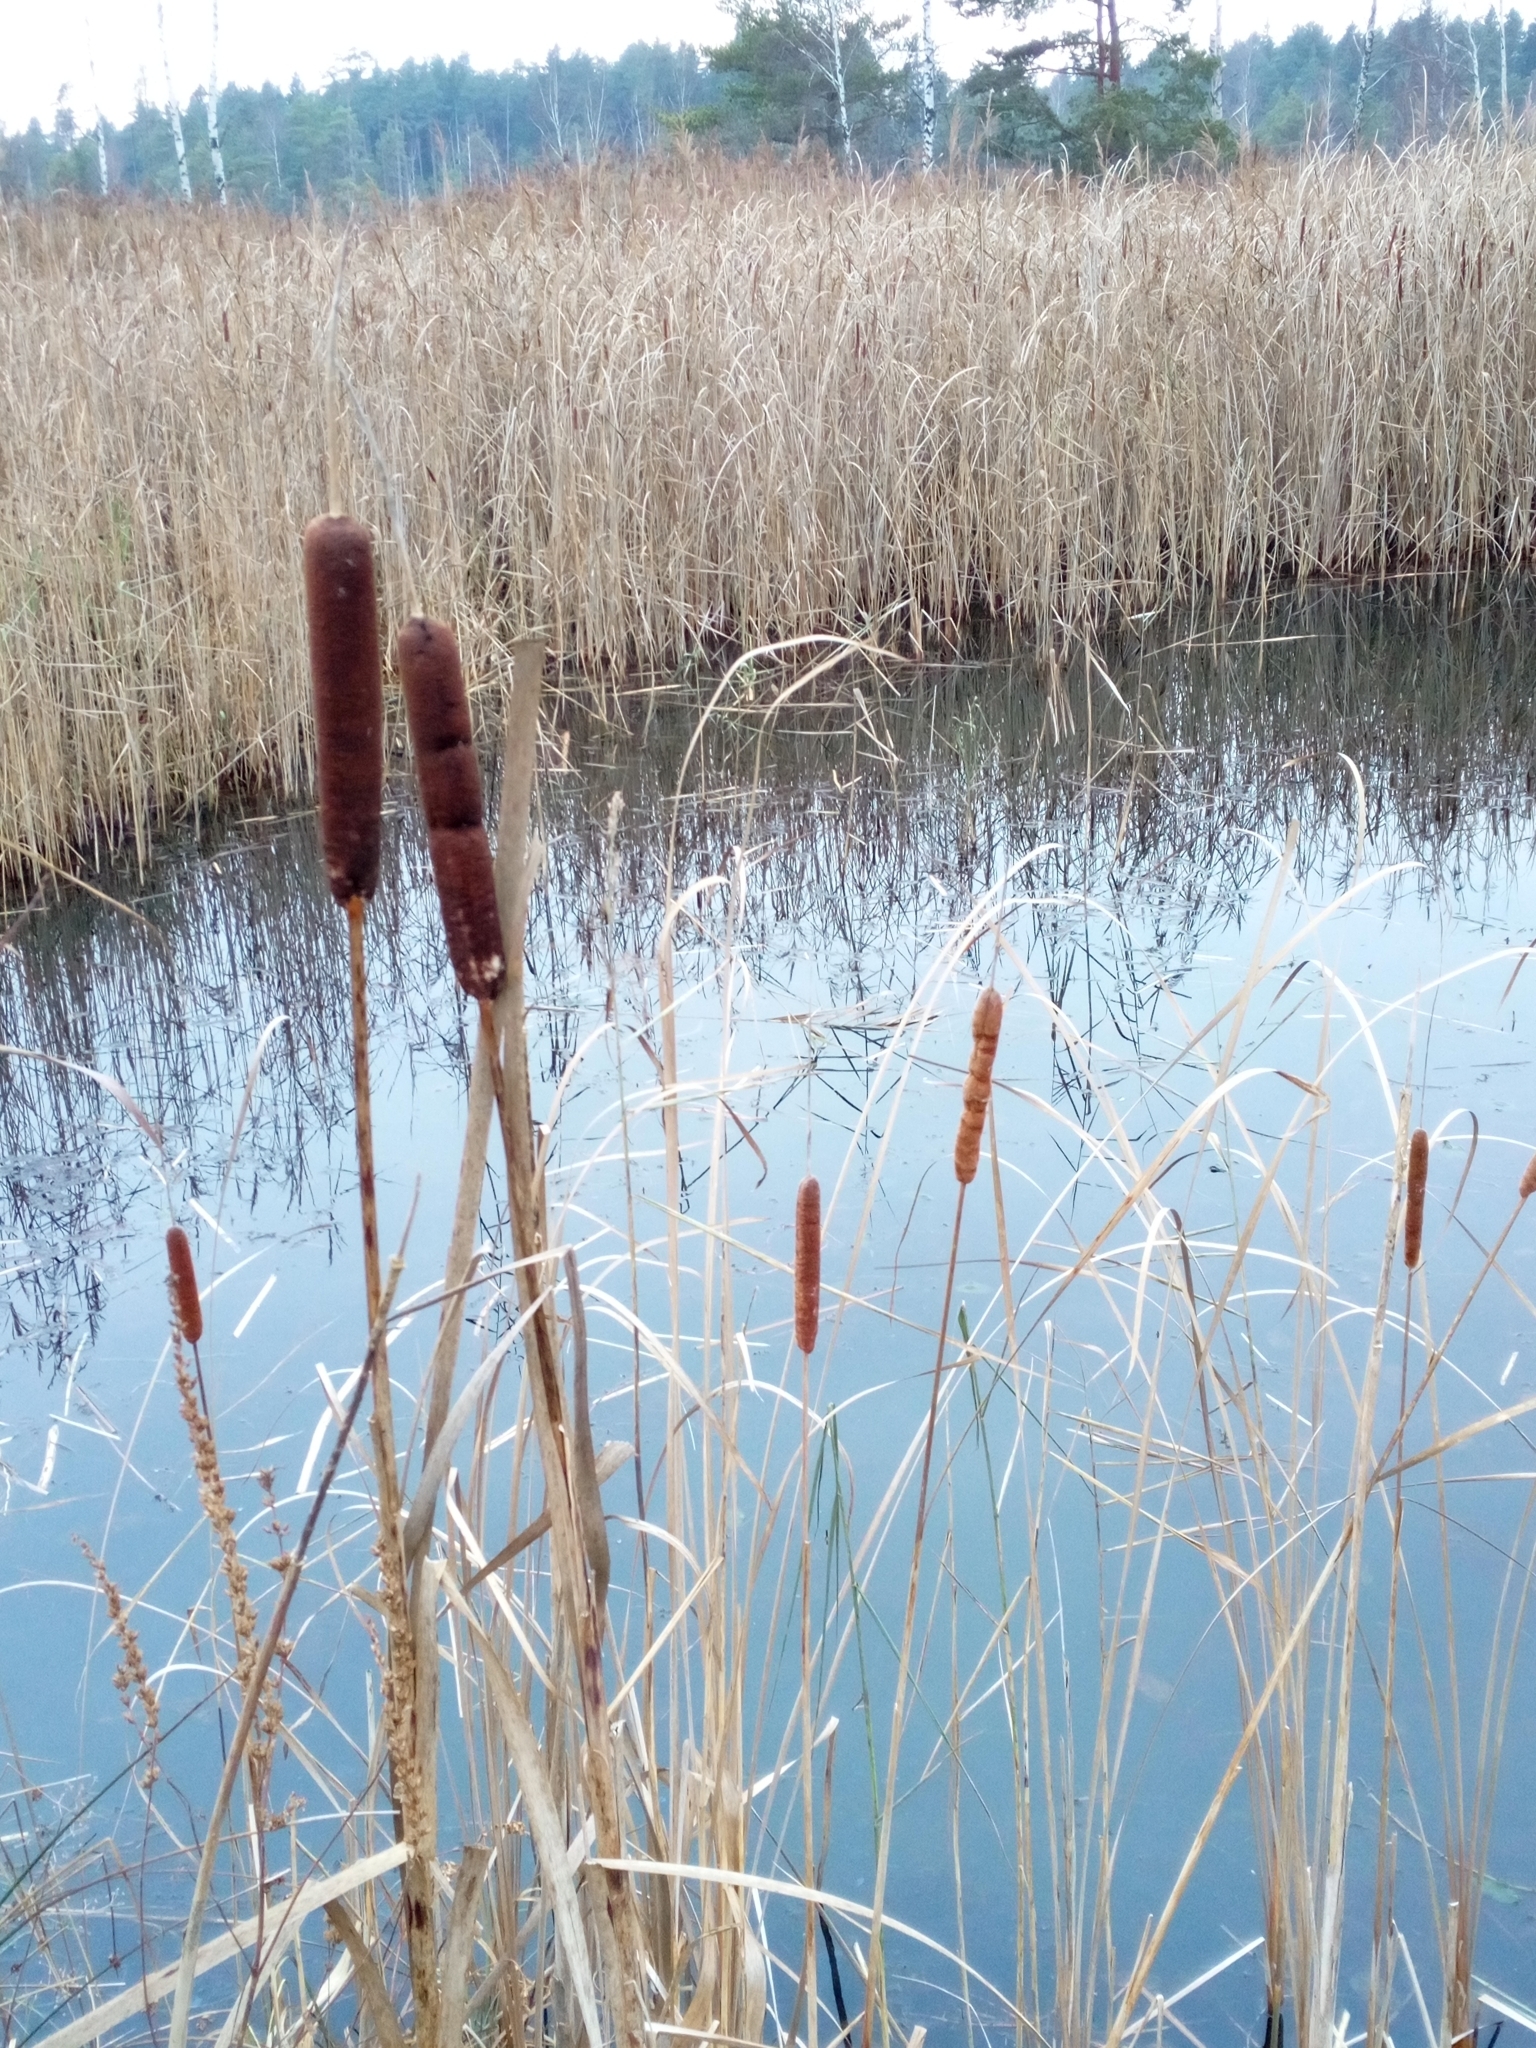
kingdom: Plantae
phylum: Tracheophyta
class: Liliopsida
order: Poales
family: Typhaceae
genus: Typha
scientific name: Typha latifolia
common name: Broadleaf cattail
